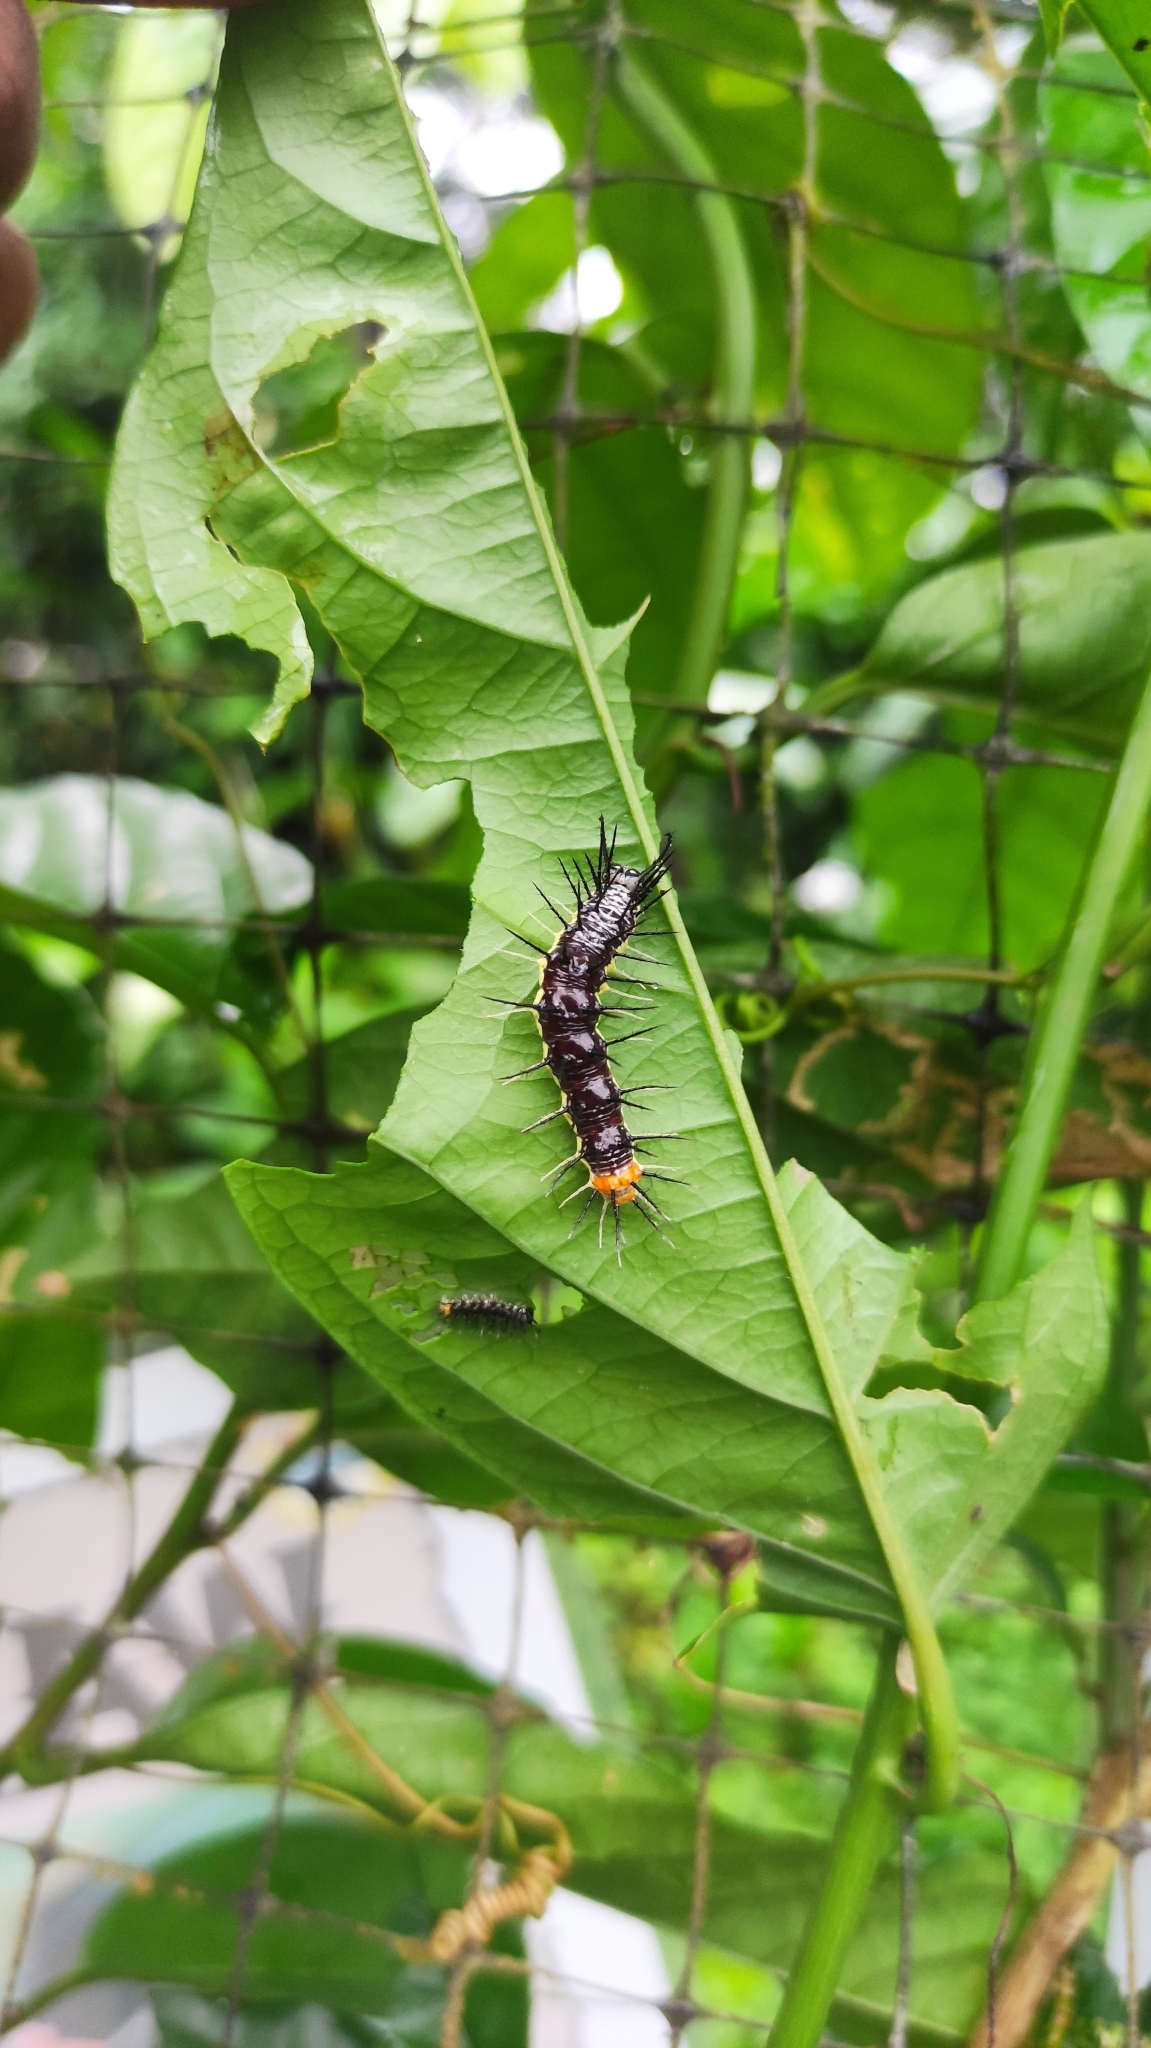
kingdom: Animalia
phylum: Arthropoda
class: Insecta
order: Lepidoptera
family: Nymphalidae
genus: Eueides
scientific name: Eueides isabella
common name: Isabella's longwing
